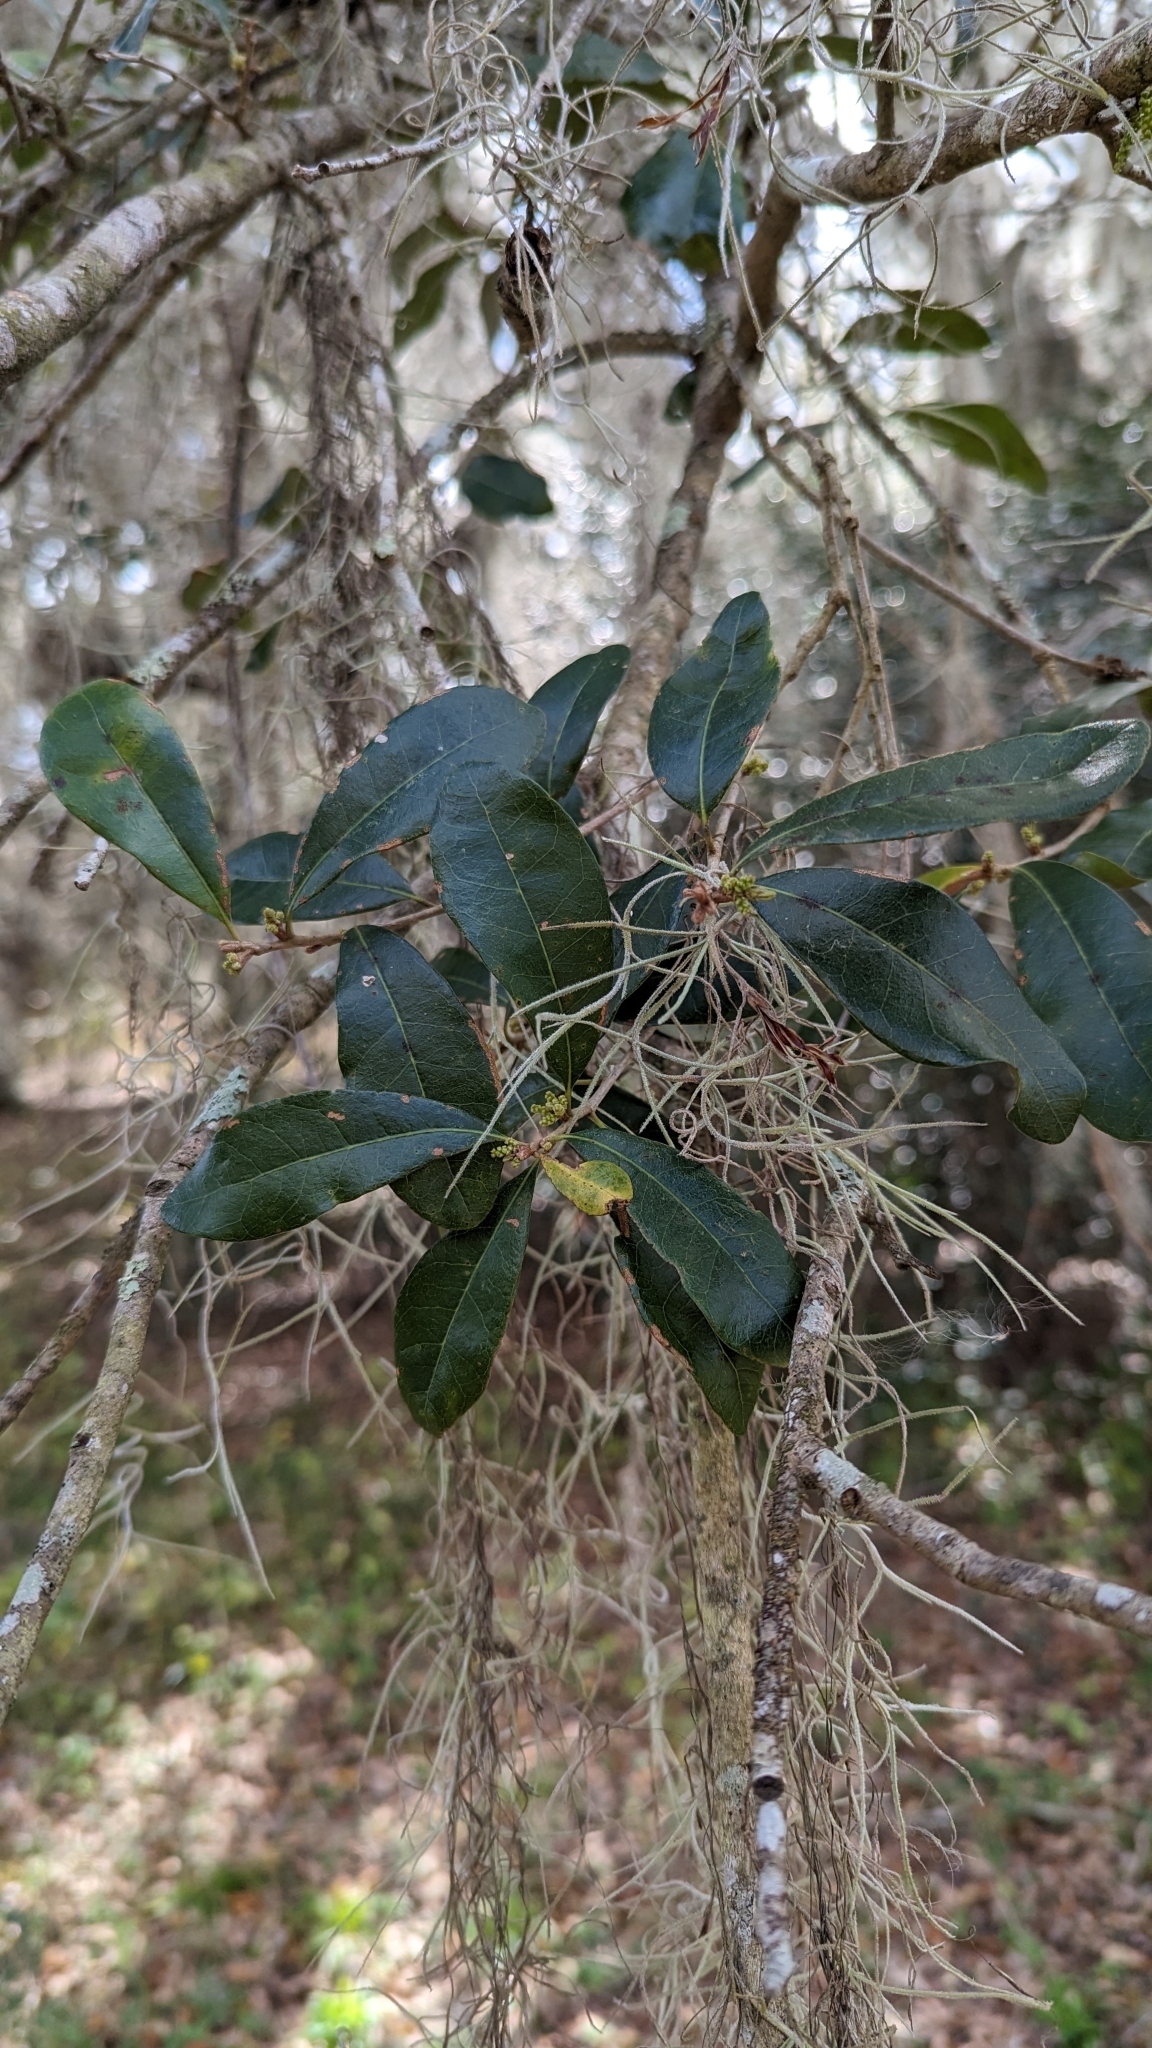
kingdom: Plantae
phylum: Tracheophyta
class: Magnoliopsida
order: Fagales
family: Fagaceae
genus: Quercus
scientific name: Quercus virginiana
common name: Southern live oak
